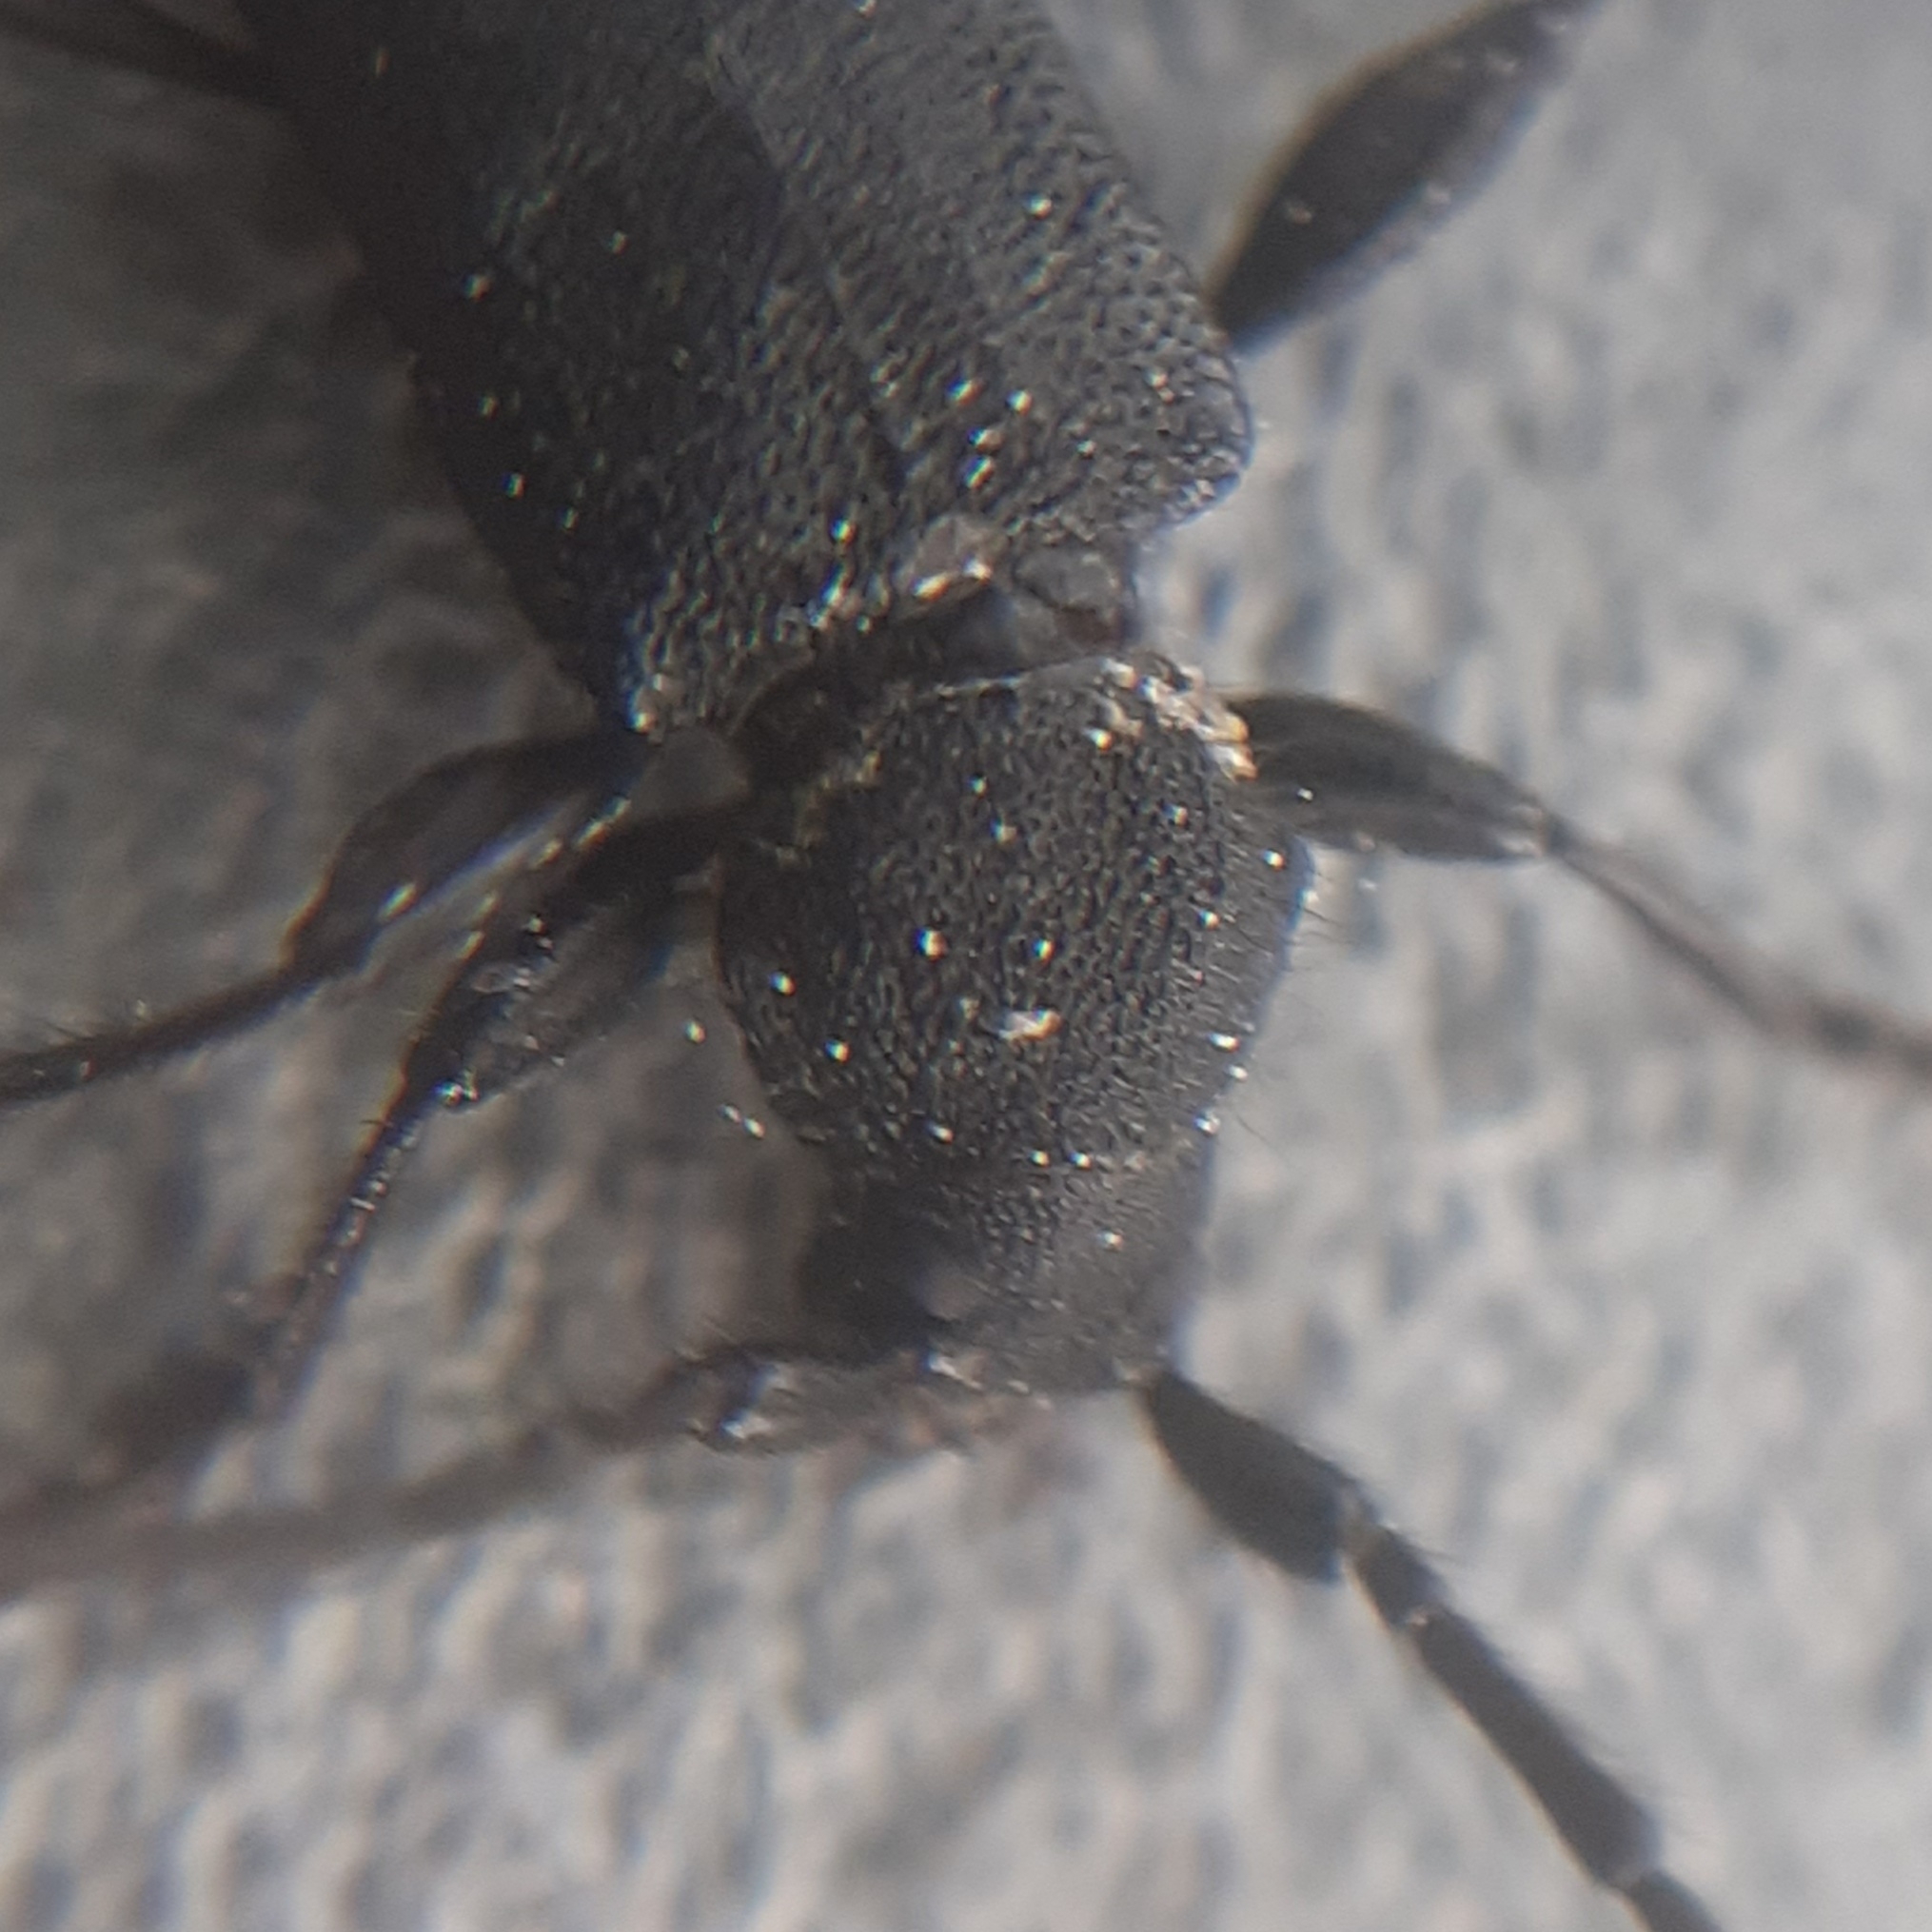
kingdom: Animalia
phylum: Arthropoda
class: Insecta
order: Coleoptera
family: Cerambycidae
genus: Ropalopus
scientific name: Ropalopus macropus
